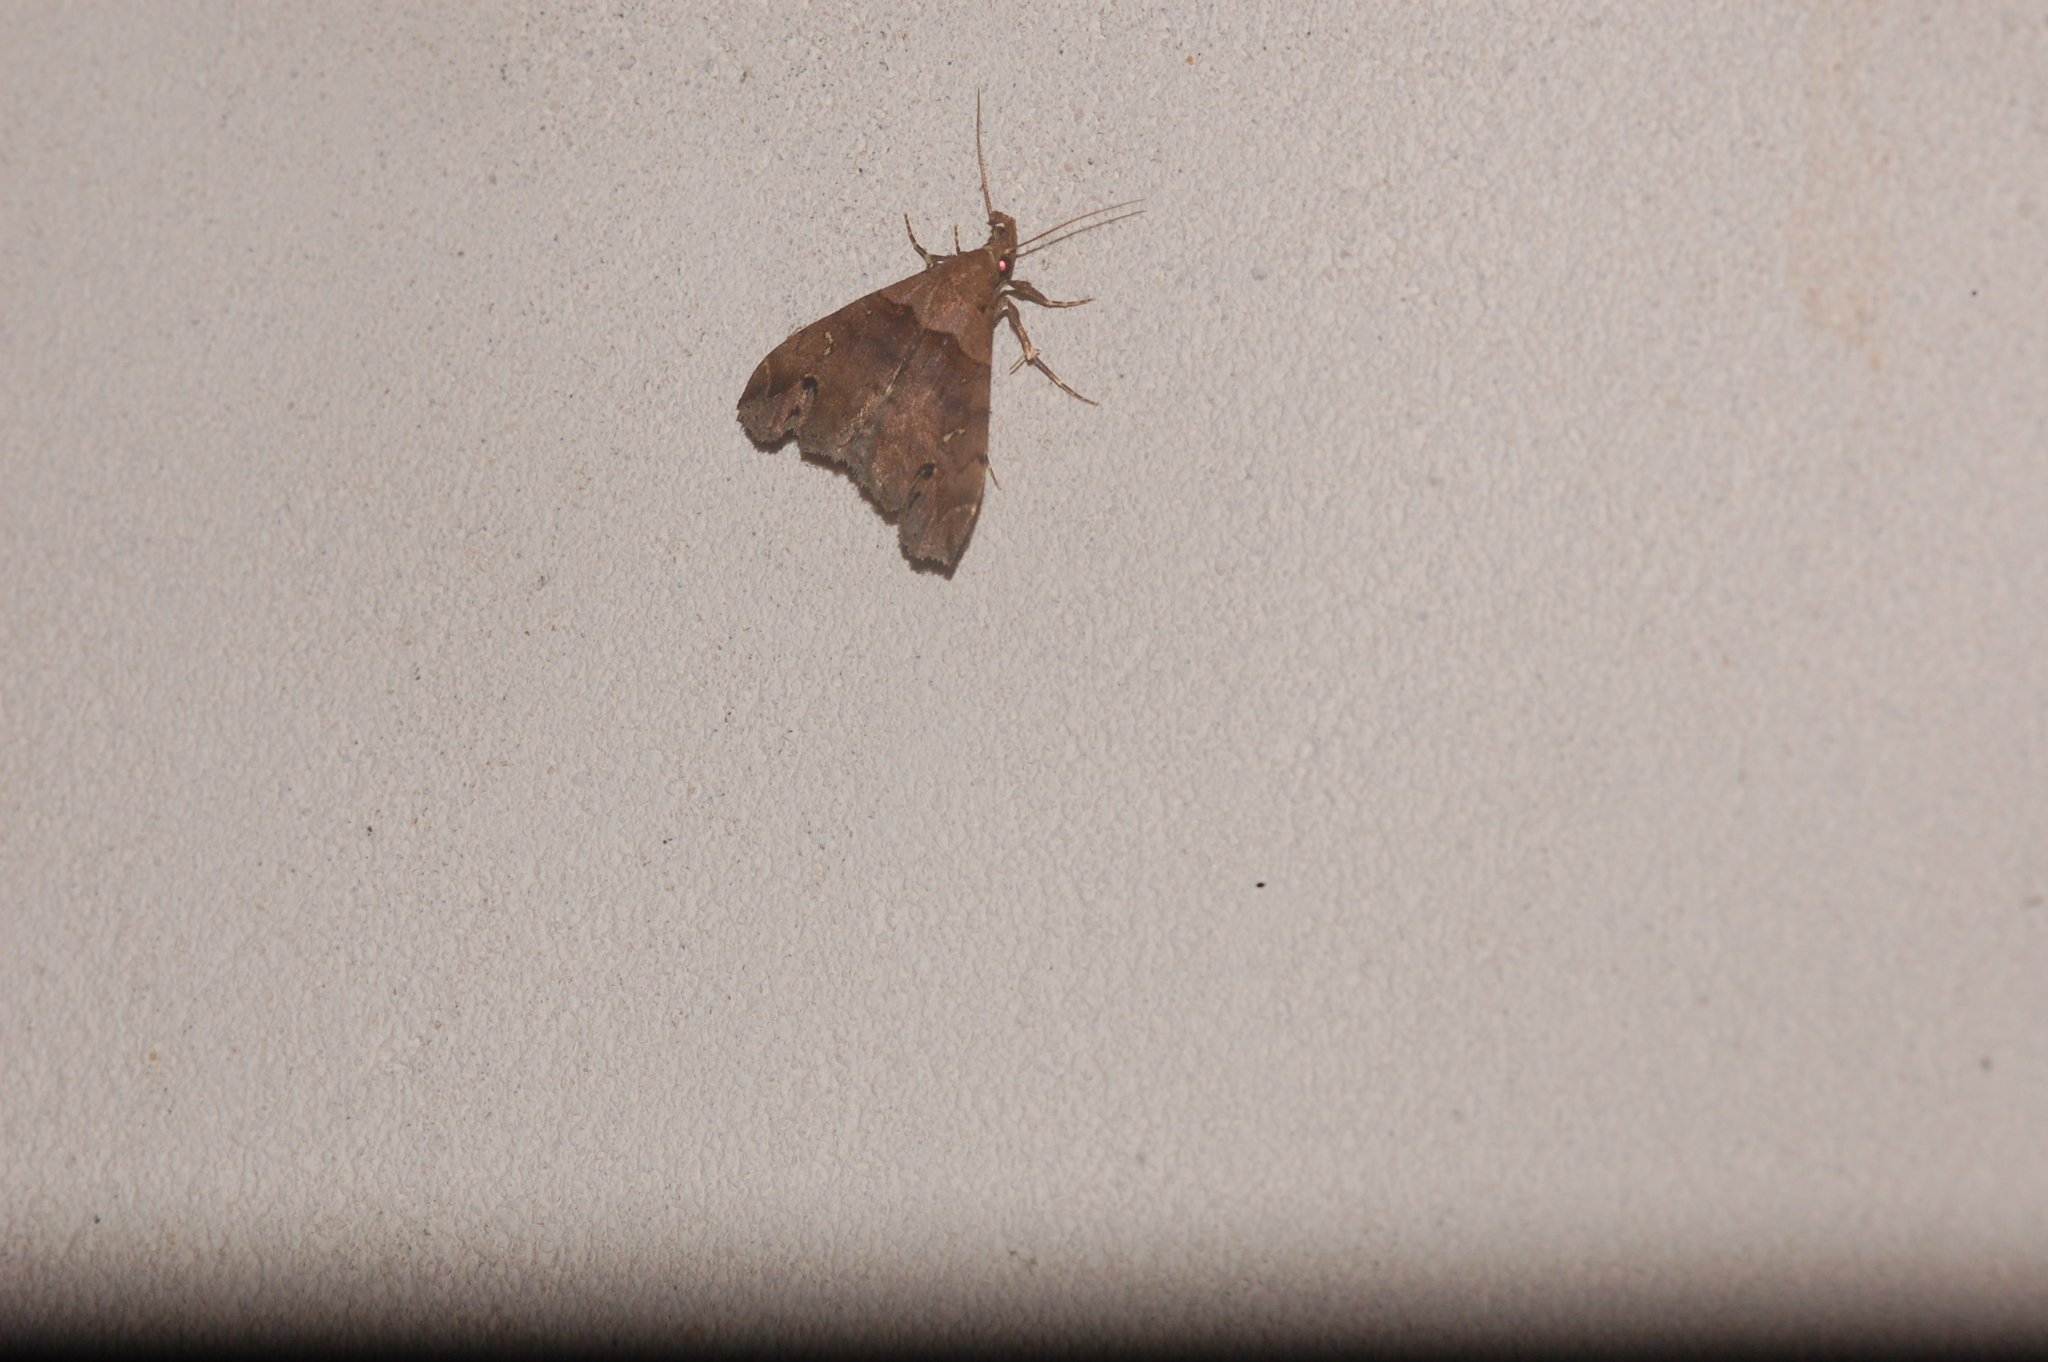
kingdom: Animalia
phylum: Arthropoda
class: Insecta
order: Lepidoptera
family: Erebidae
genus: Lascoria
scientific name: Lascoria ambigualis
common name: Ambiguous moth
